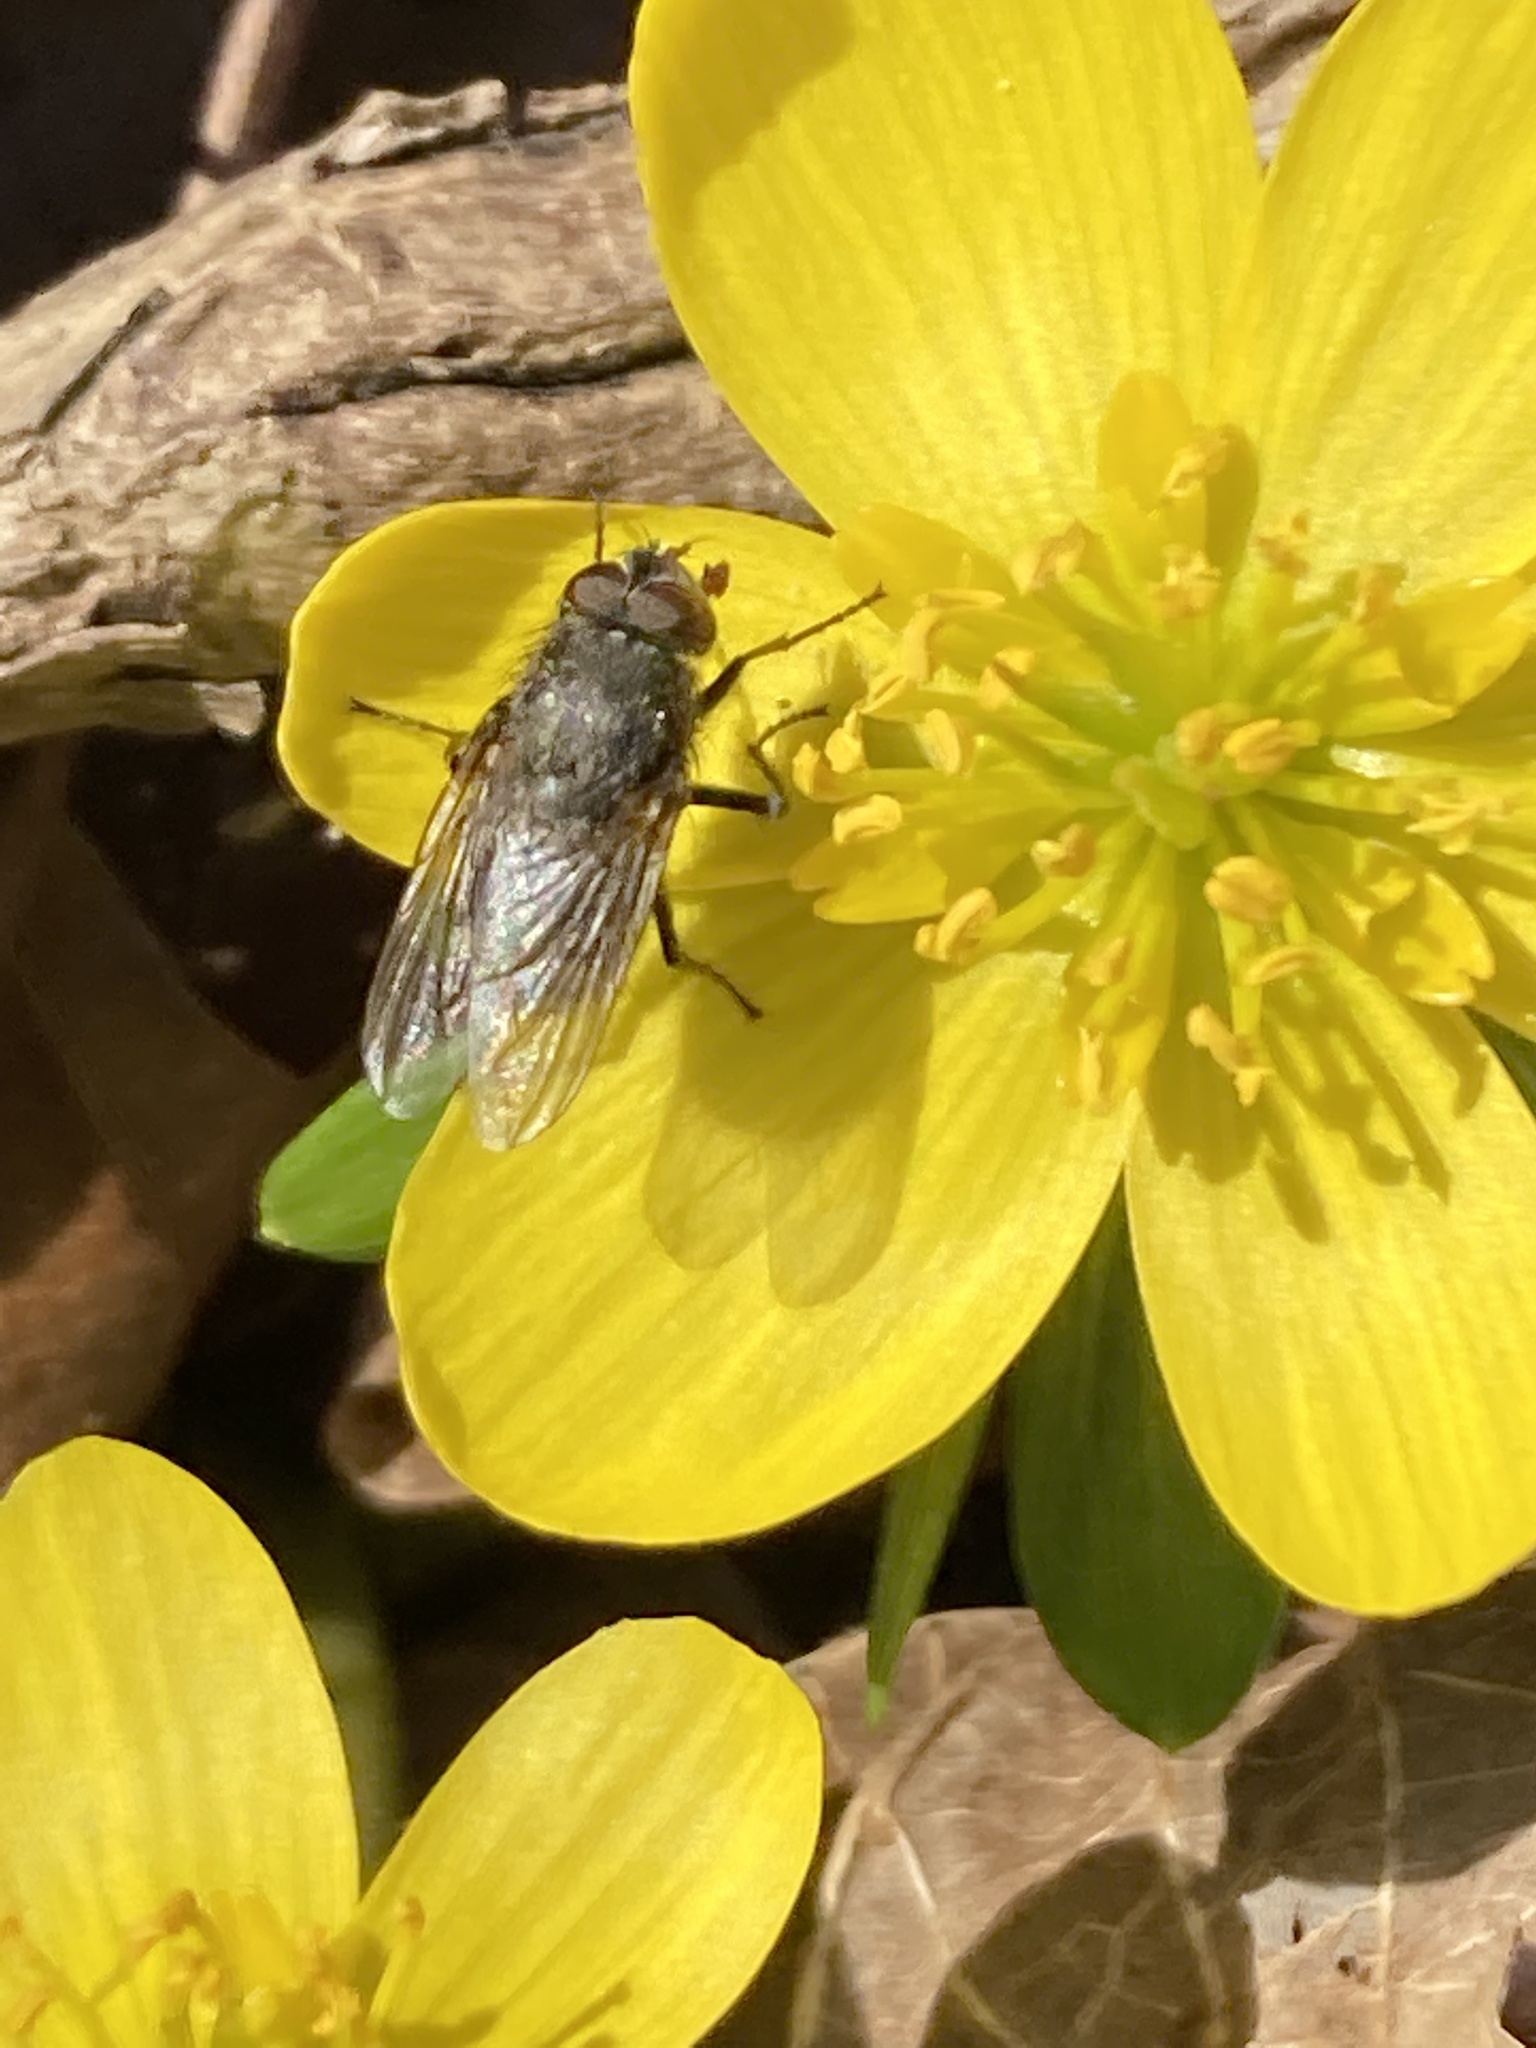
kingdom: Animalia
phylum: Arthropoda
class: Insecta
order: Diptera
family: Polleniidae
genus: Pollenia
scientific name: Pollenia
